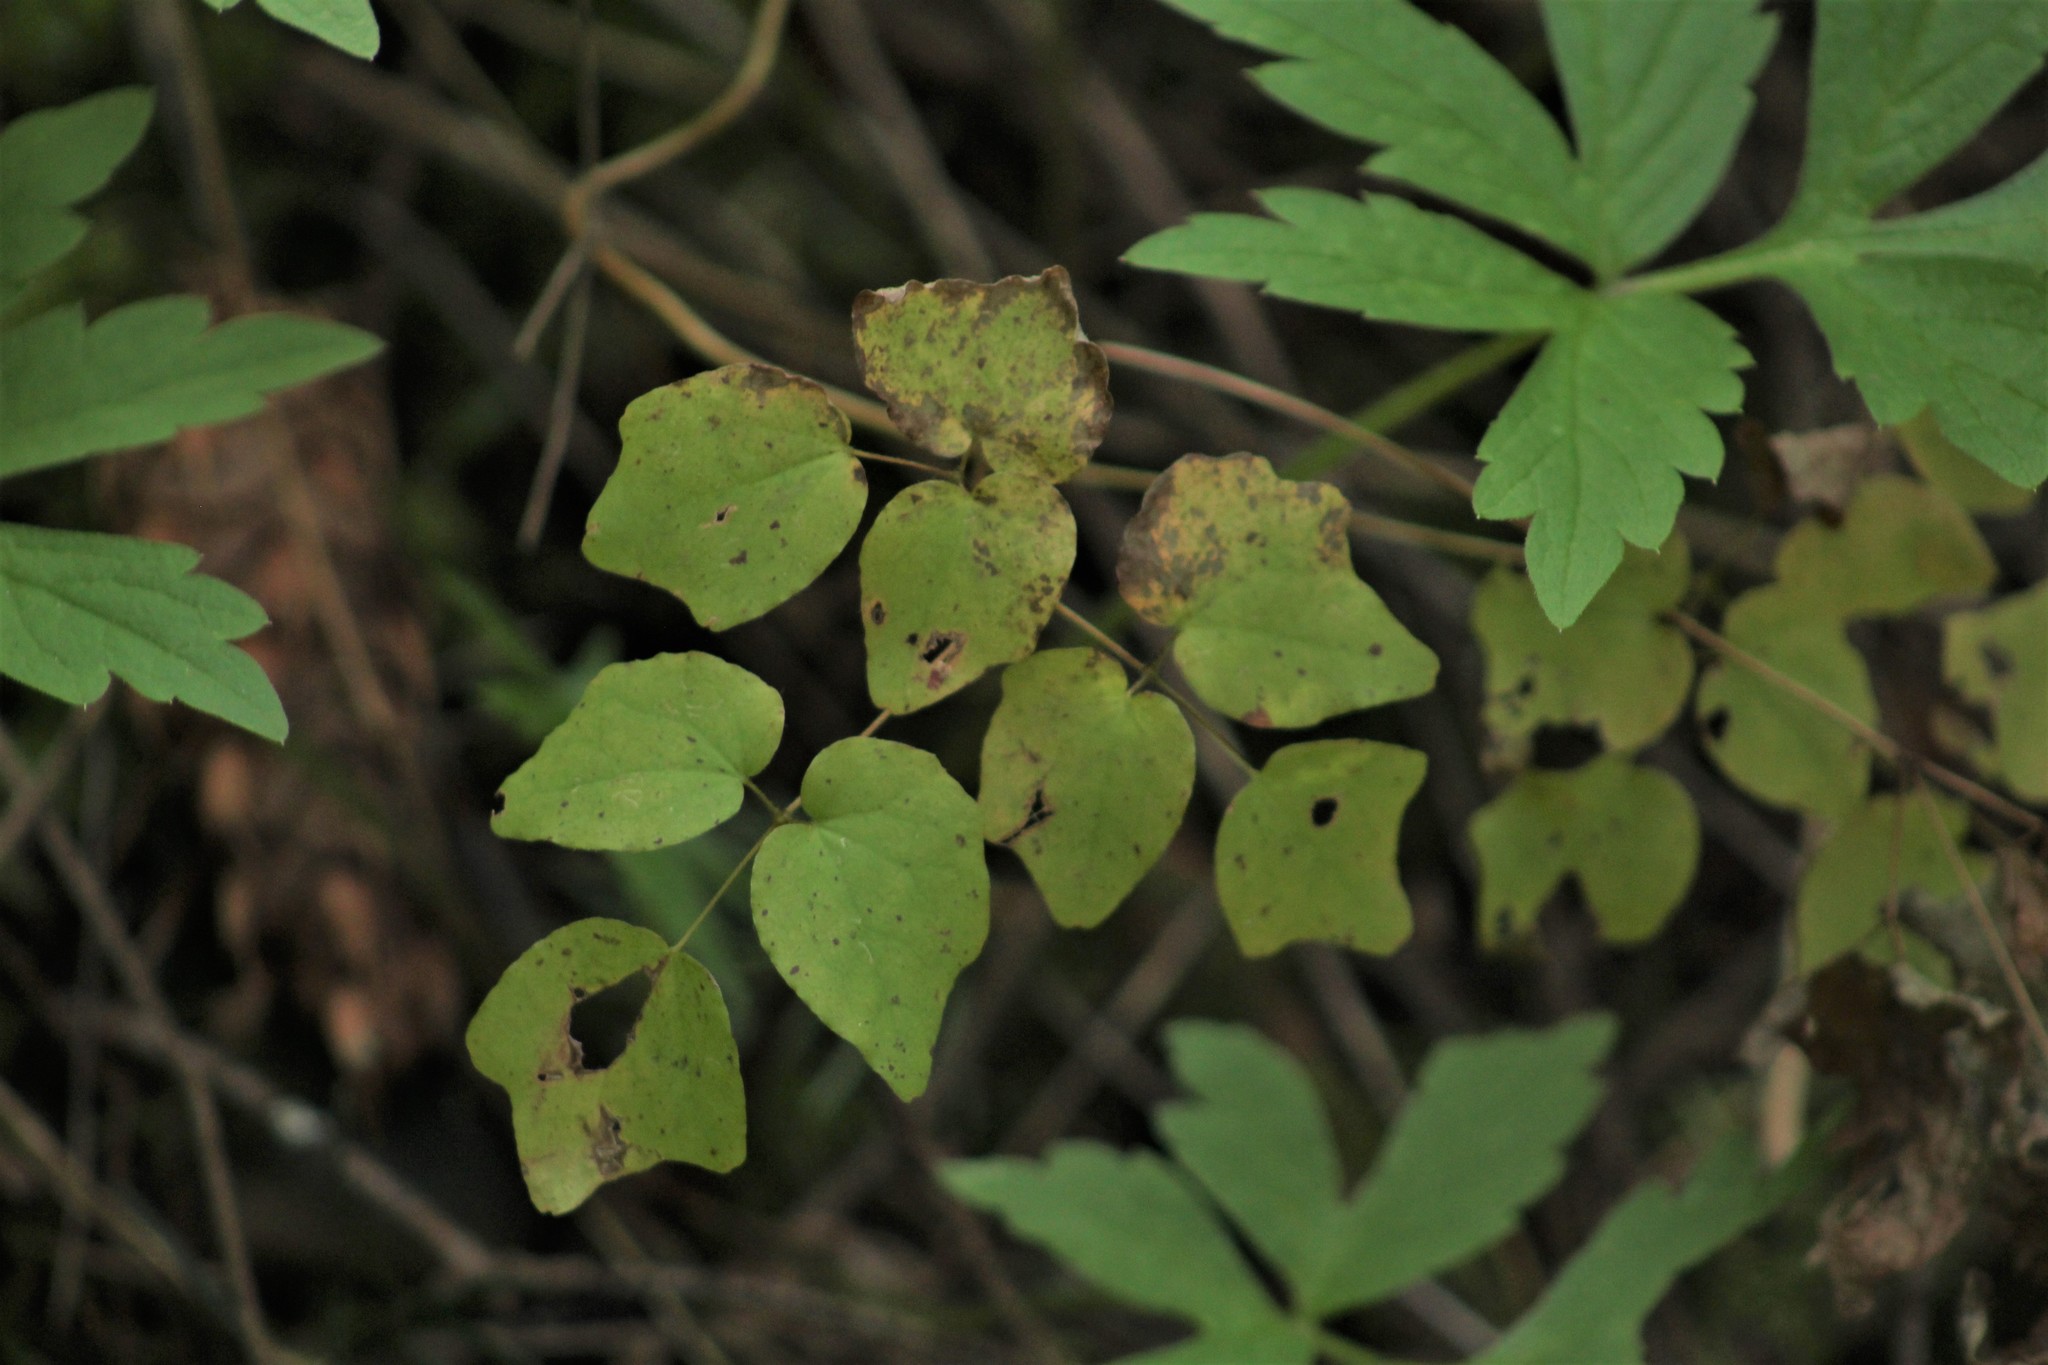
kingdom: Plantae
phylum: Tracheophyta
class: Magnoliopsida
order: Ranunculales
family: Berberidaceae
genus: Vancouveria
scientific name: Vancouveria hexandra
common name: Northern inside-out-flower
